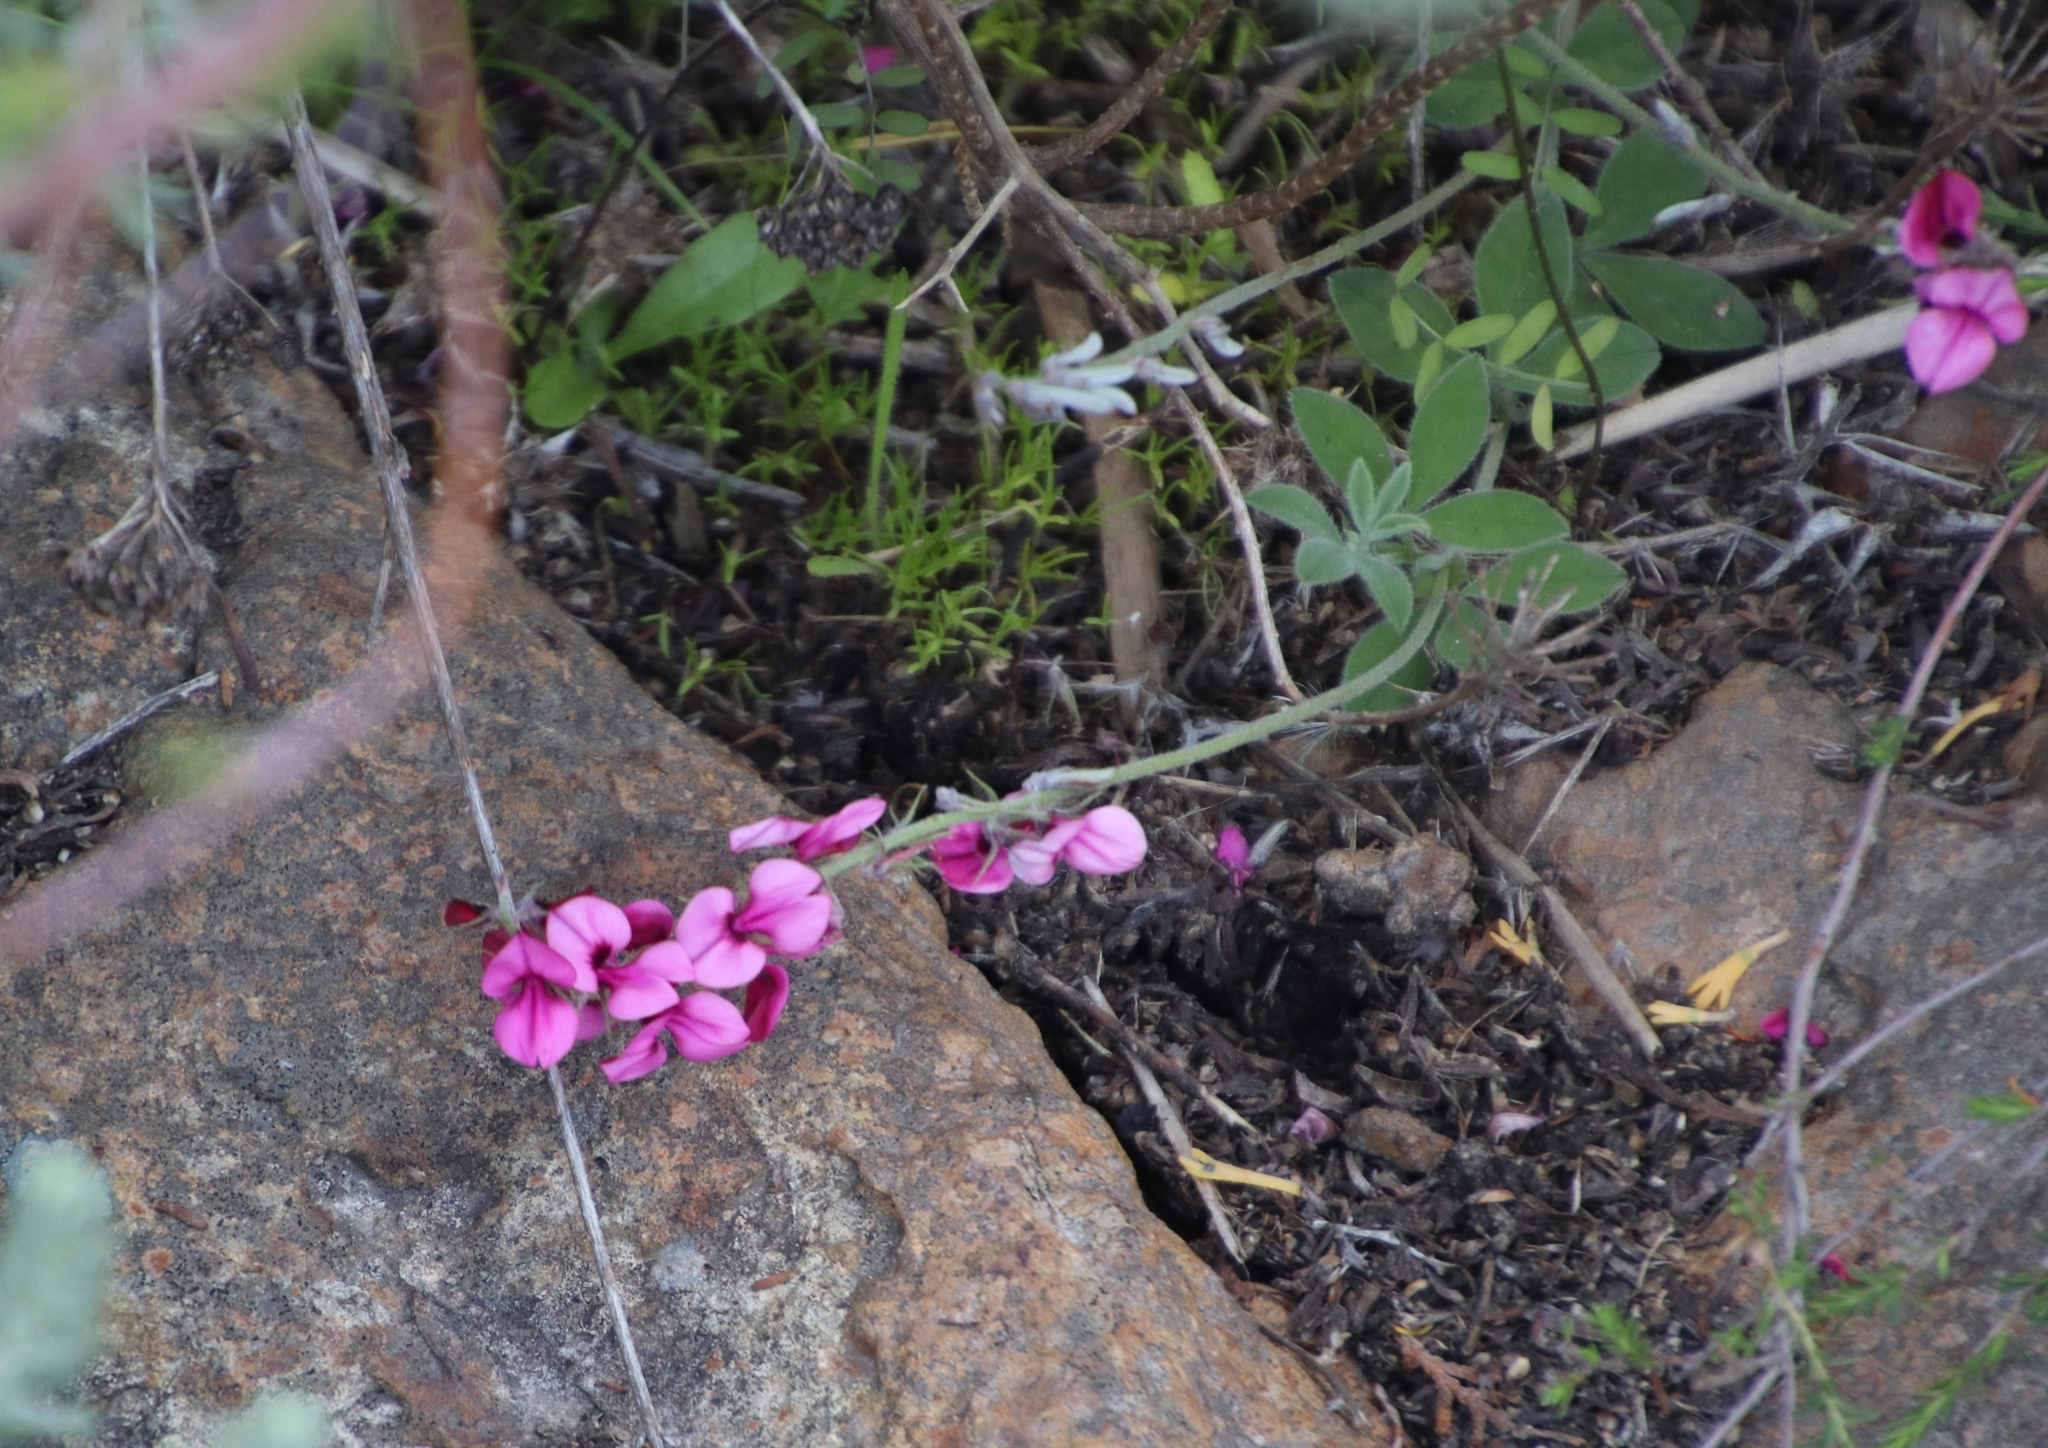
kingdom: Plantae
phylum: Tracheophyta
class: Magnoliopsida
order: Fabales
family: Fabaceae
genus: Indigofera
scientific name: Indigofera incana
